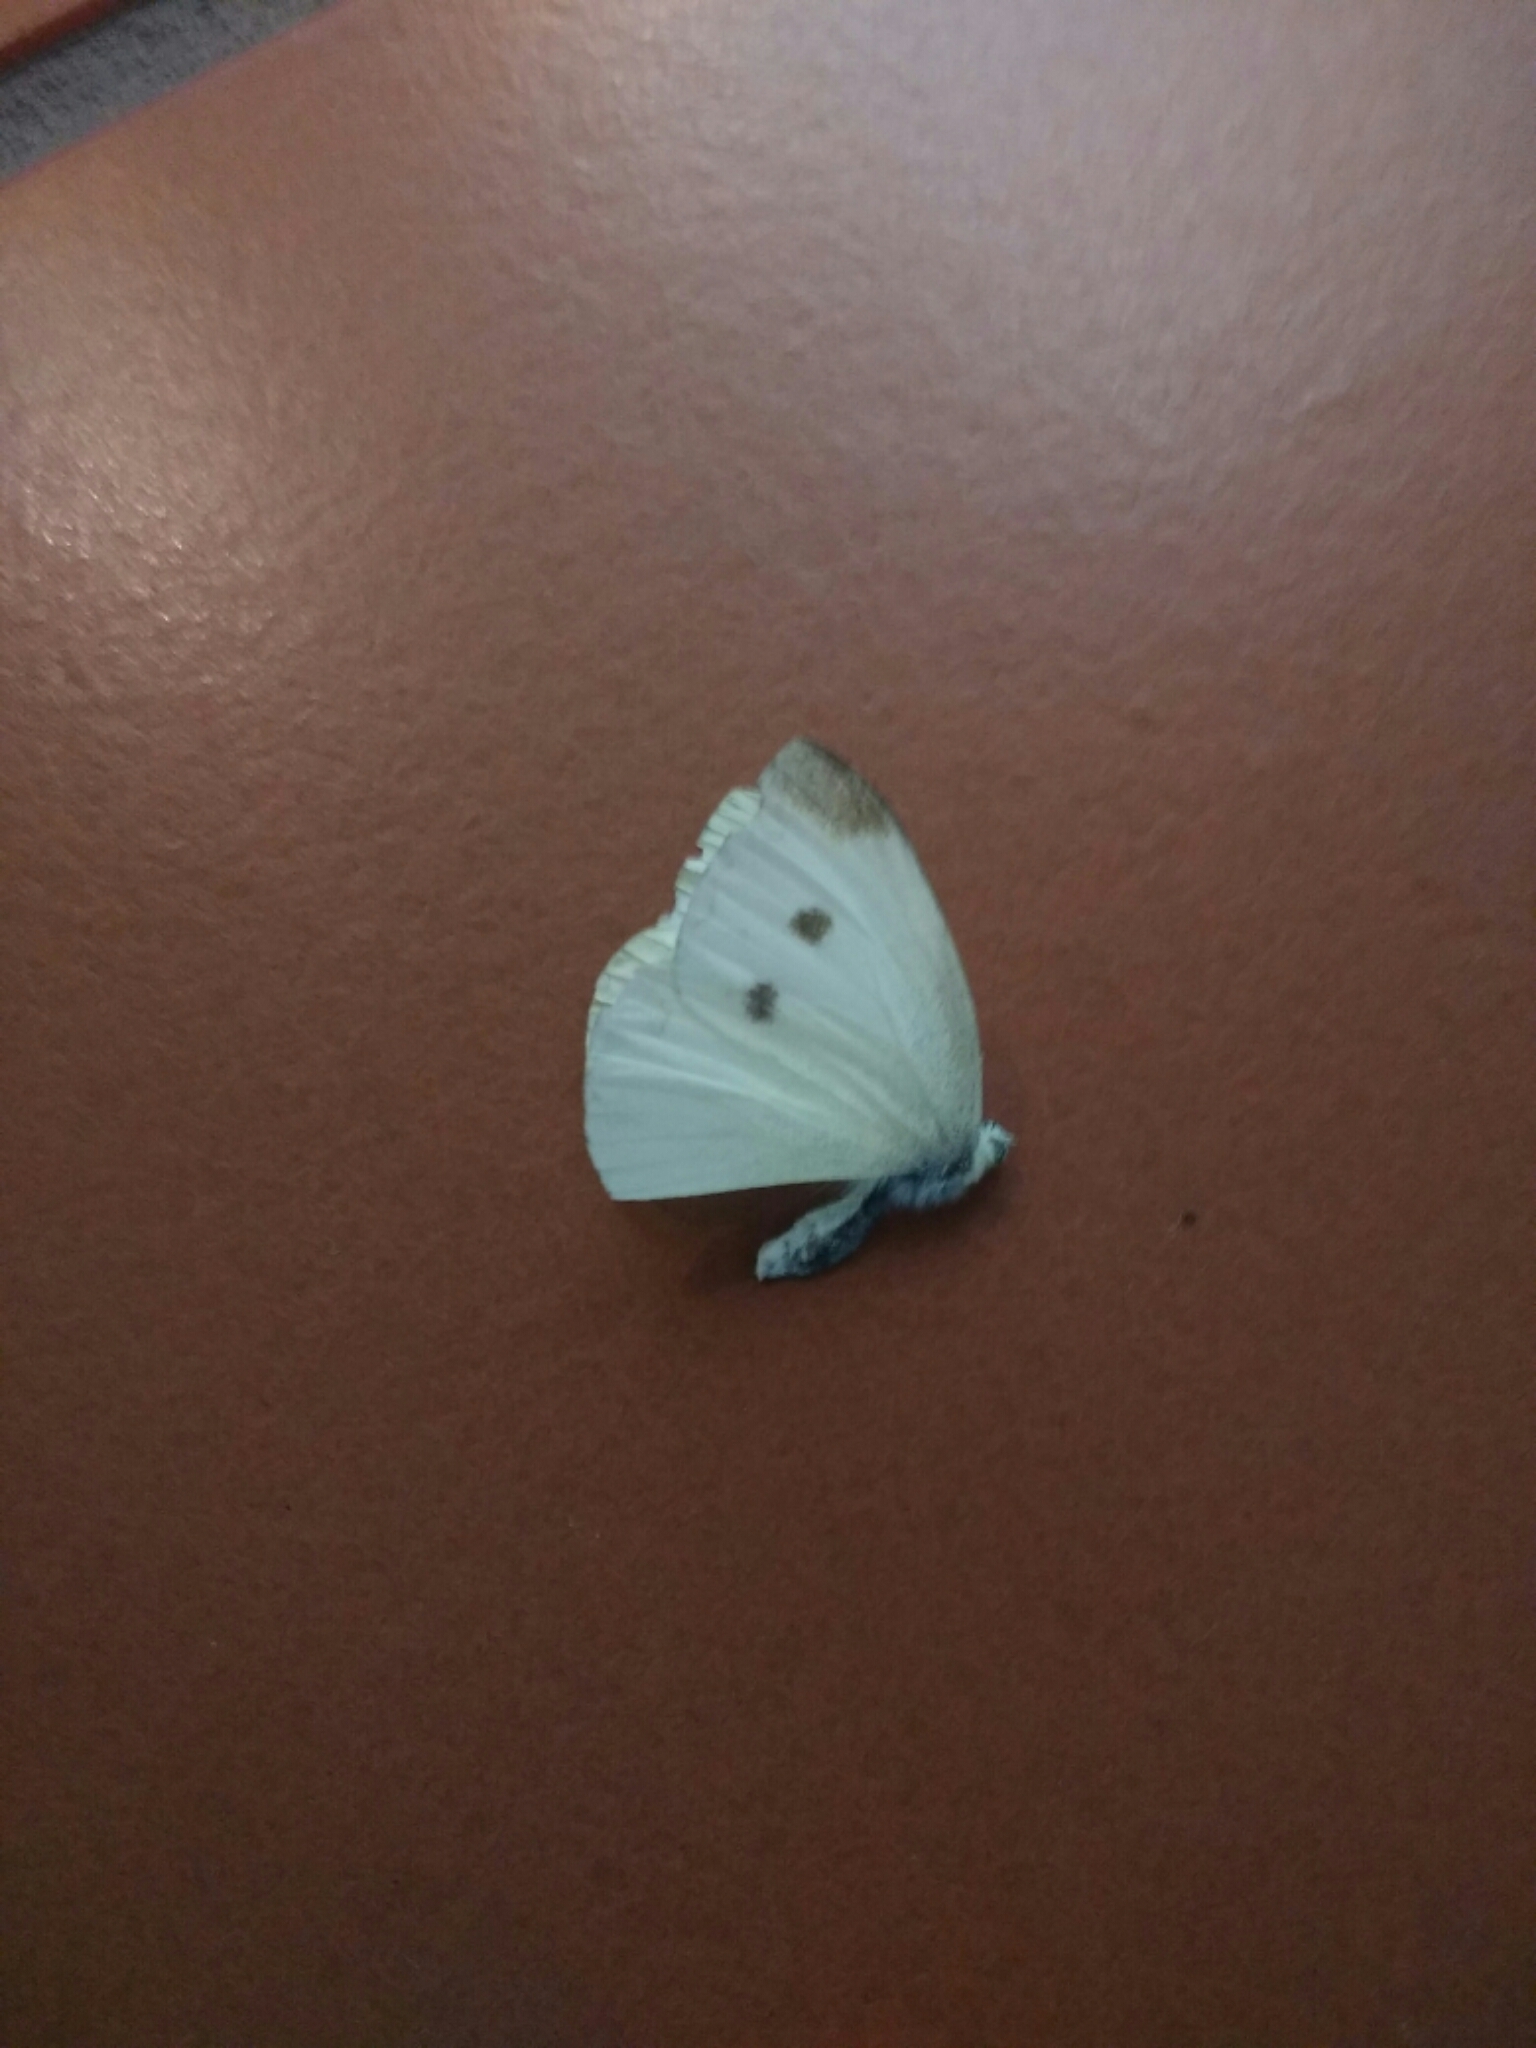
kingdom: Animalia
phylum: Arthropoda
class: Insecta
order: Lepidoptera
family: Pieridae
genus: Pieris
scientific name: Pieris rapae
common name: Small white
